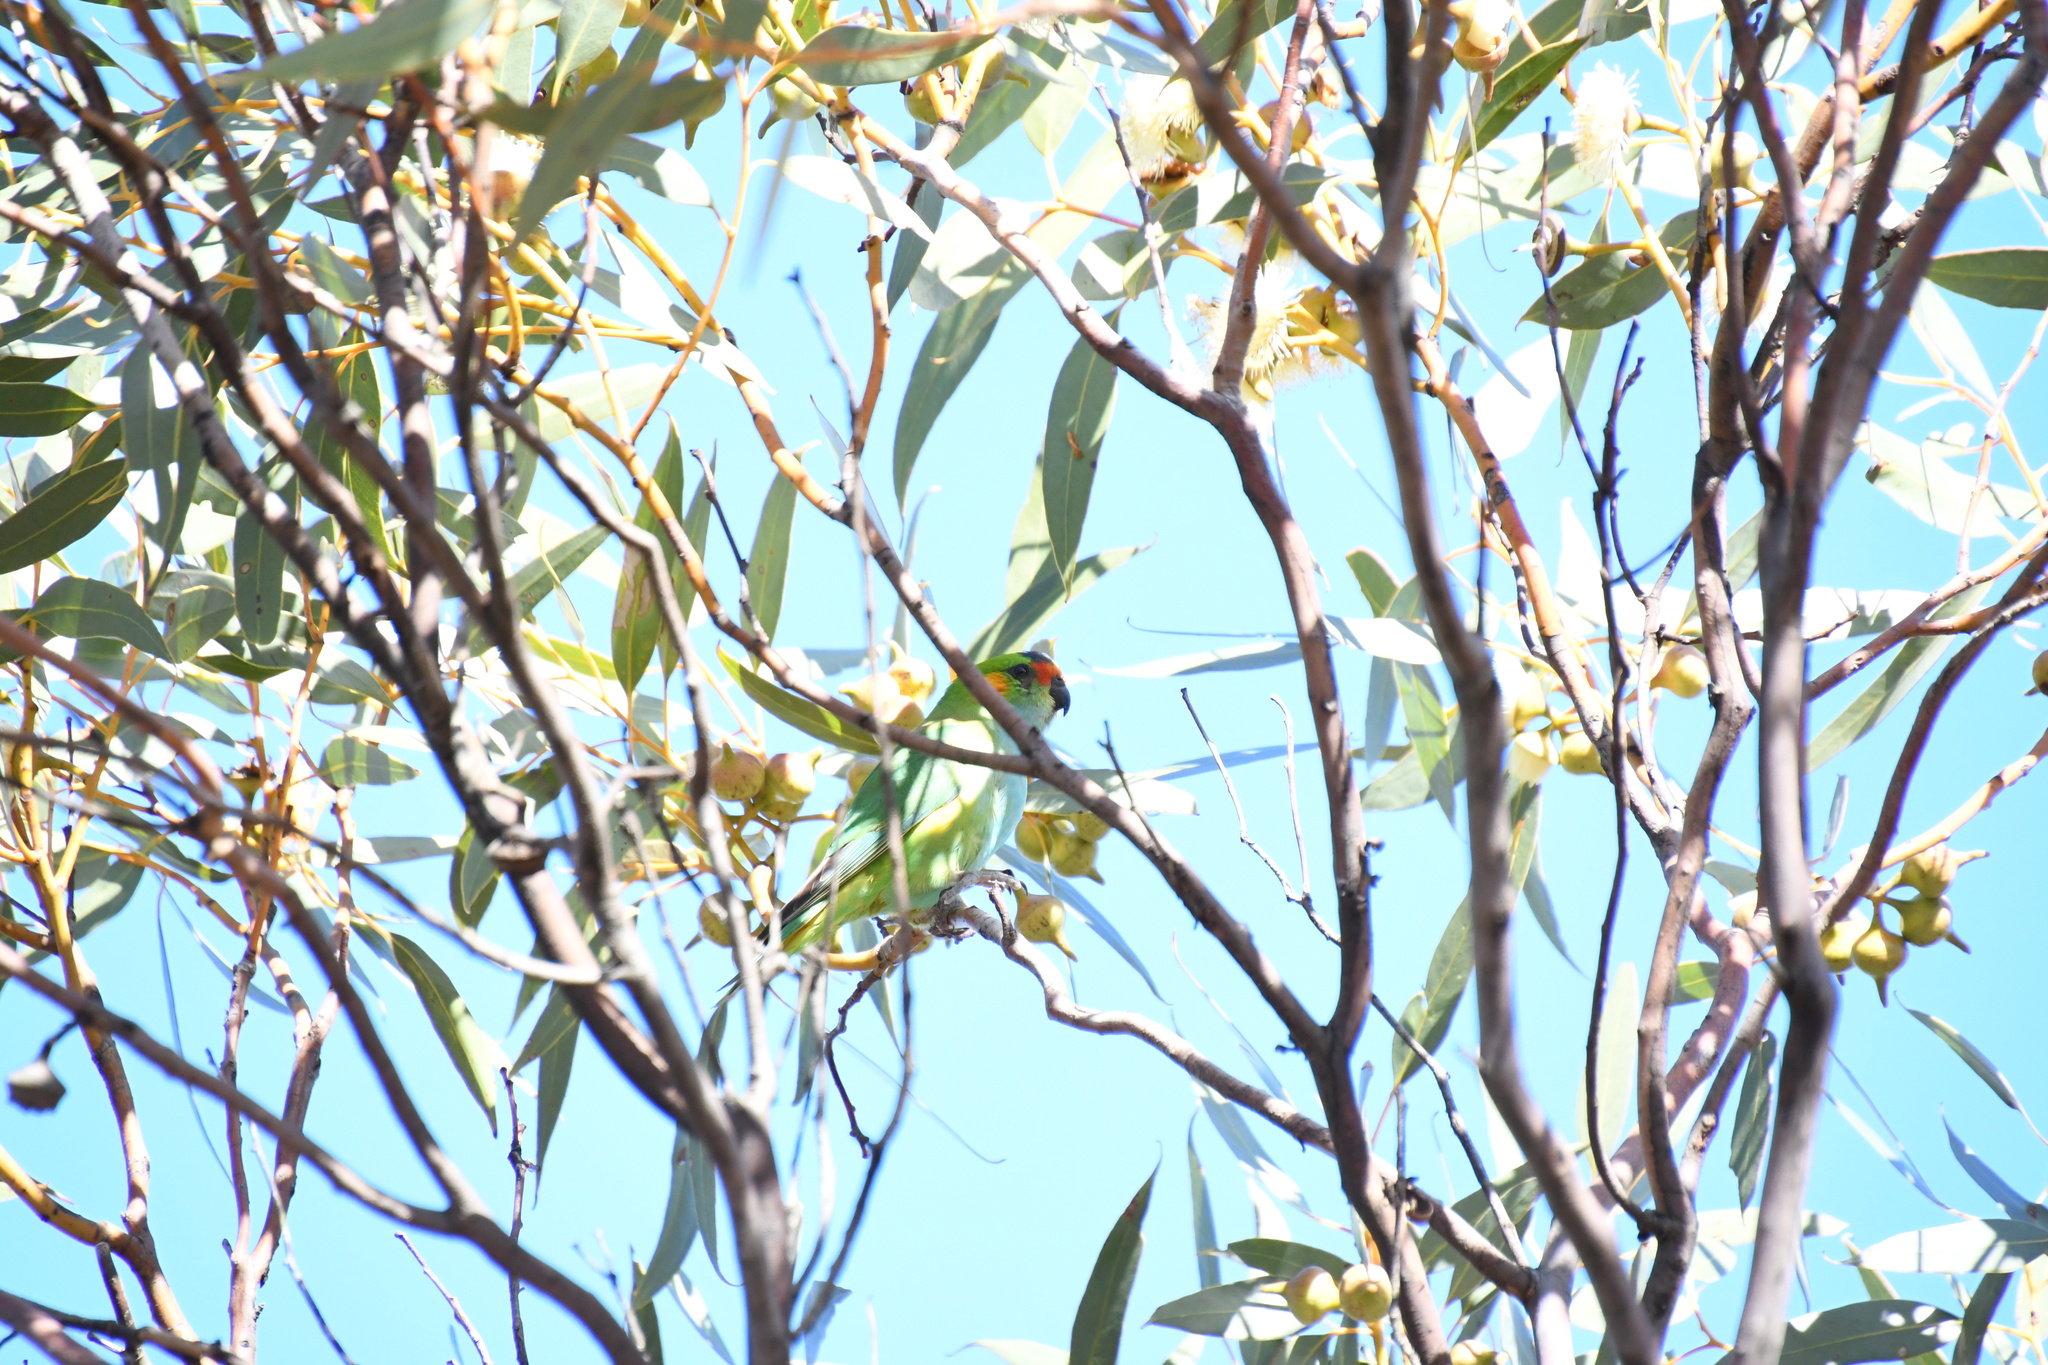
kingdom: Animalia
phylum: Chordata
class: Aves
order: Psittaciformes
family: Psittaculidae
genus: Parvipsitta
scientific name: Parvipsitta porphyrocephala
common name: Purple-crowned lorikeet
